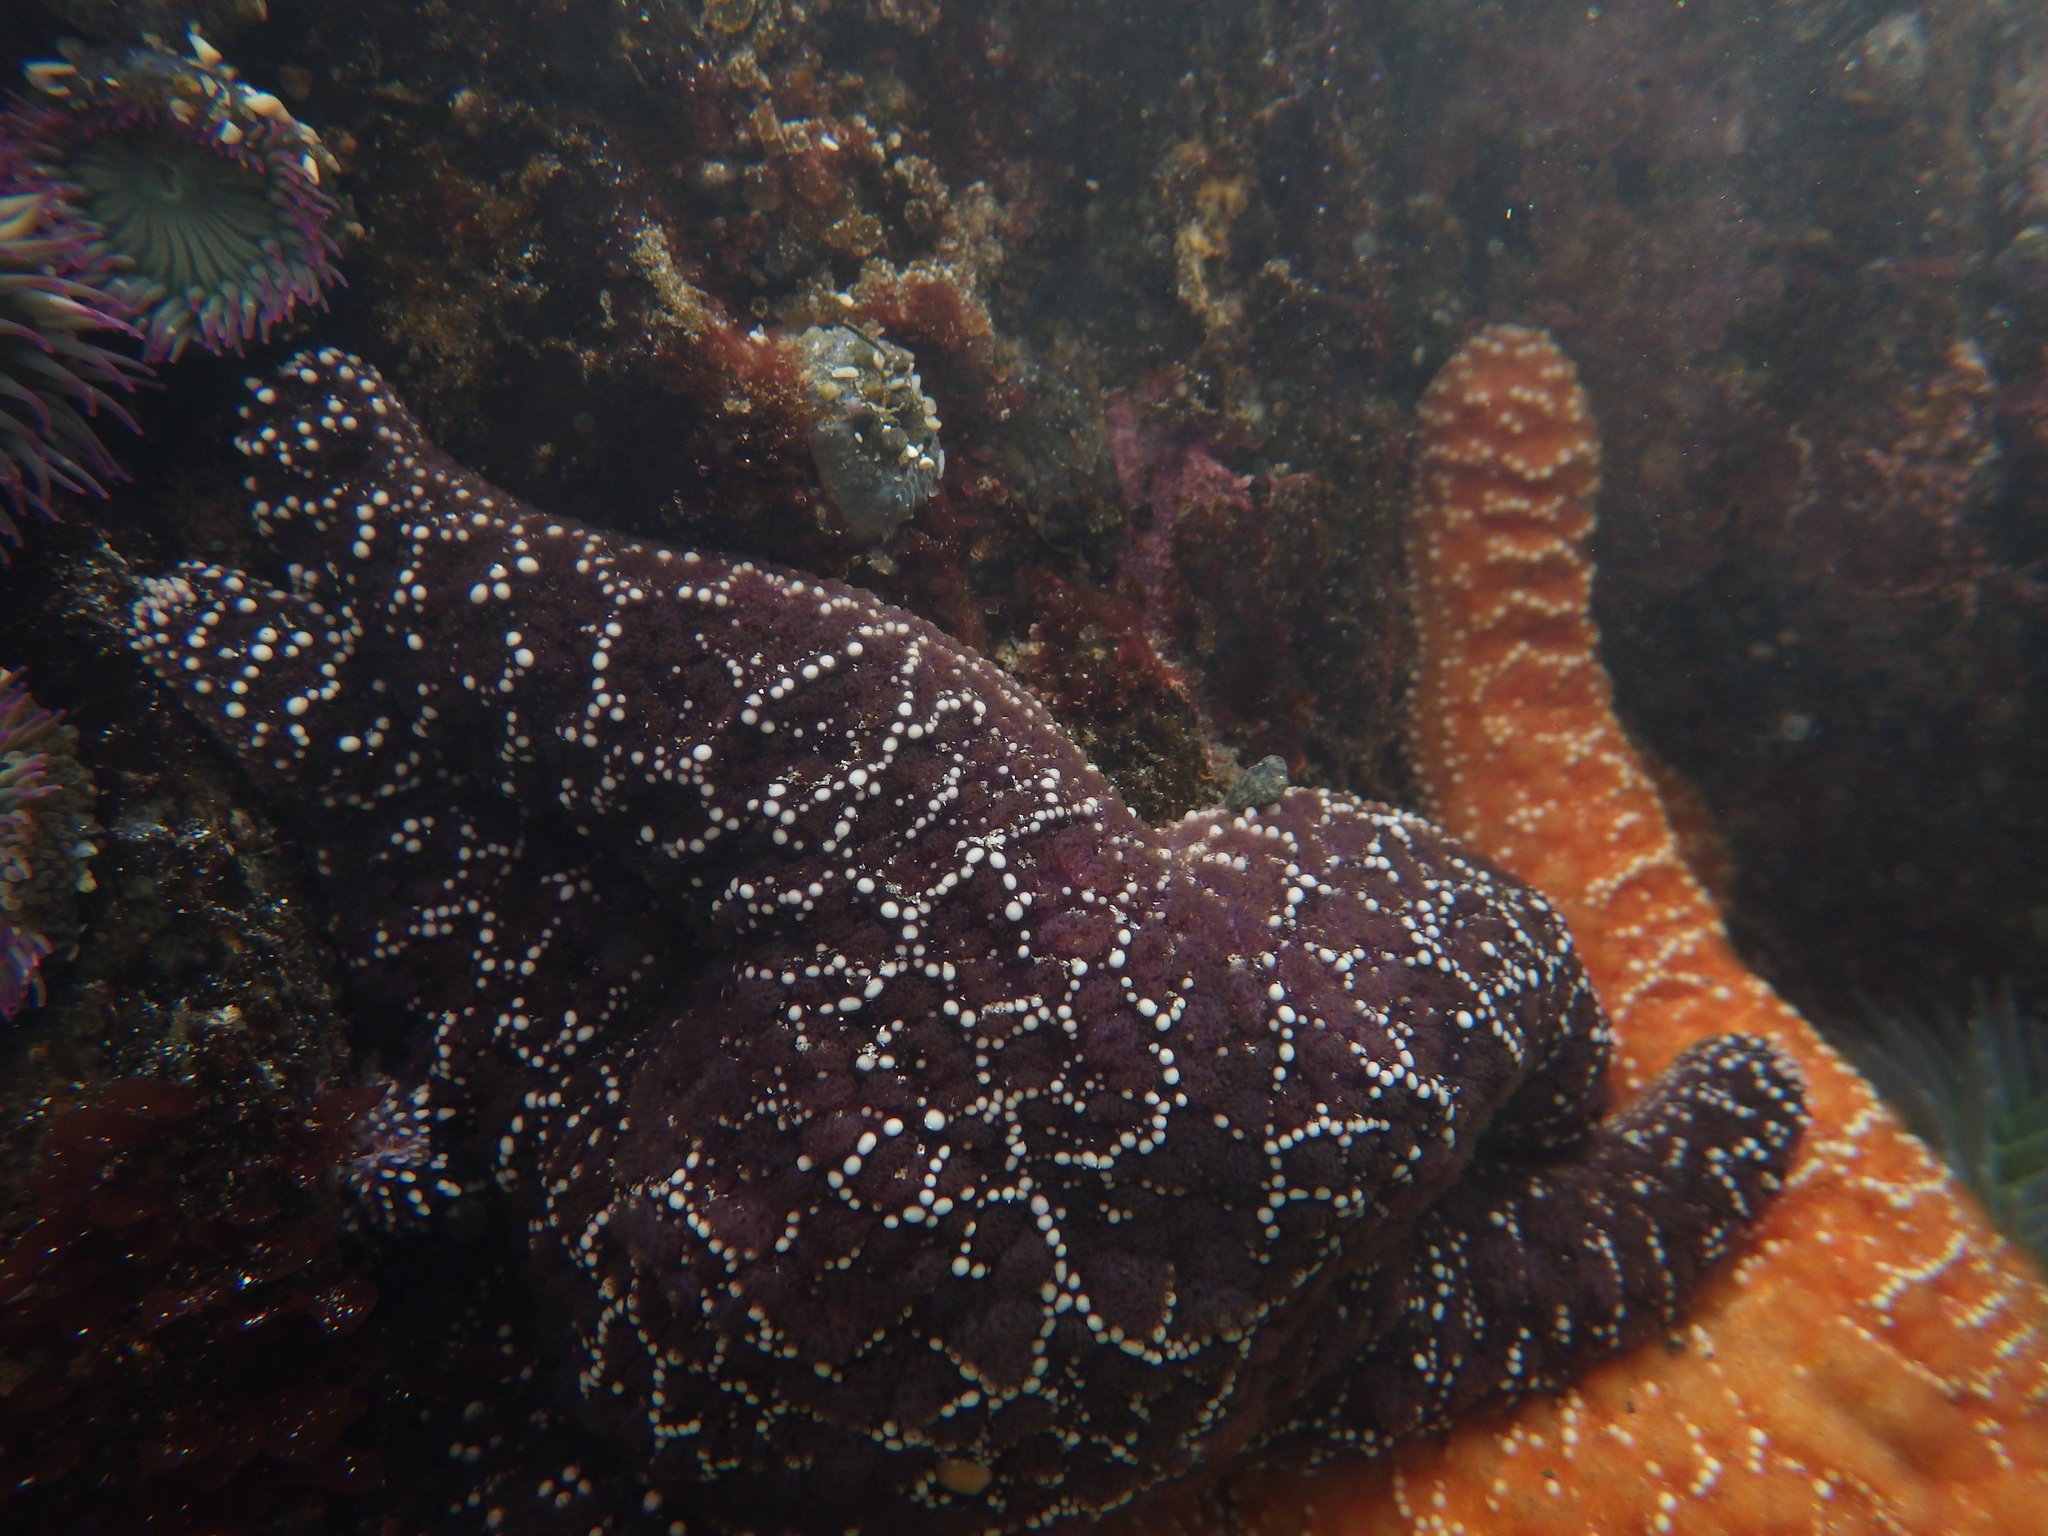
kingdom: Animalia
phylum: Echinodermata
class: Asteroidea
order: Forcipulatida
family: Asteriidae
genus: Pisaster
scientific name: Pisaster ochraceus
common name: Ochre stars
